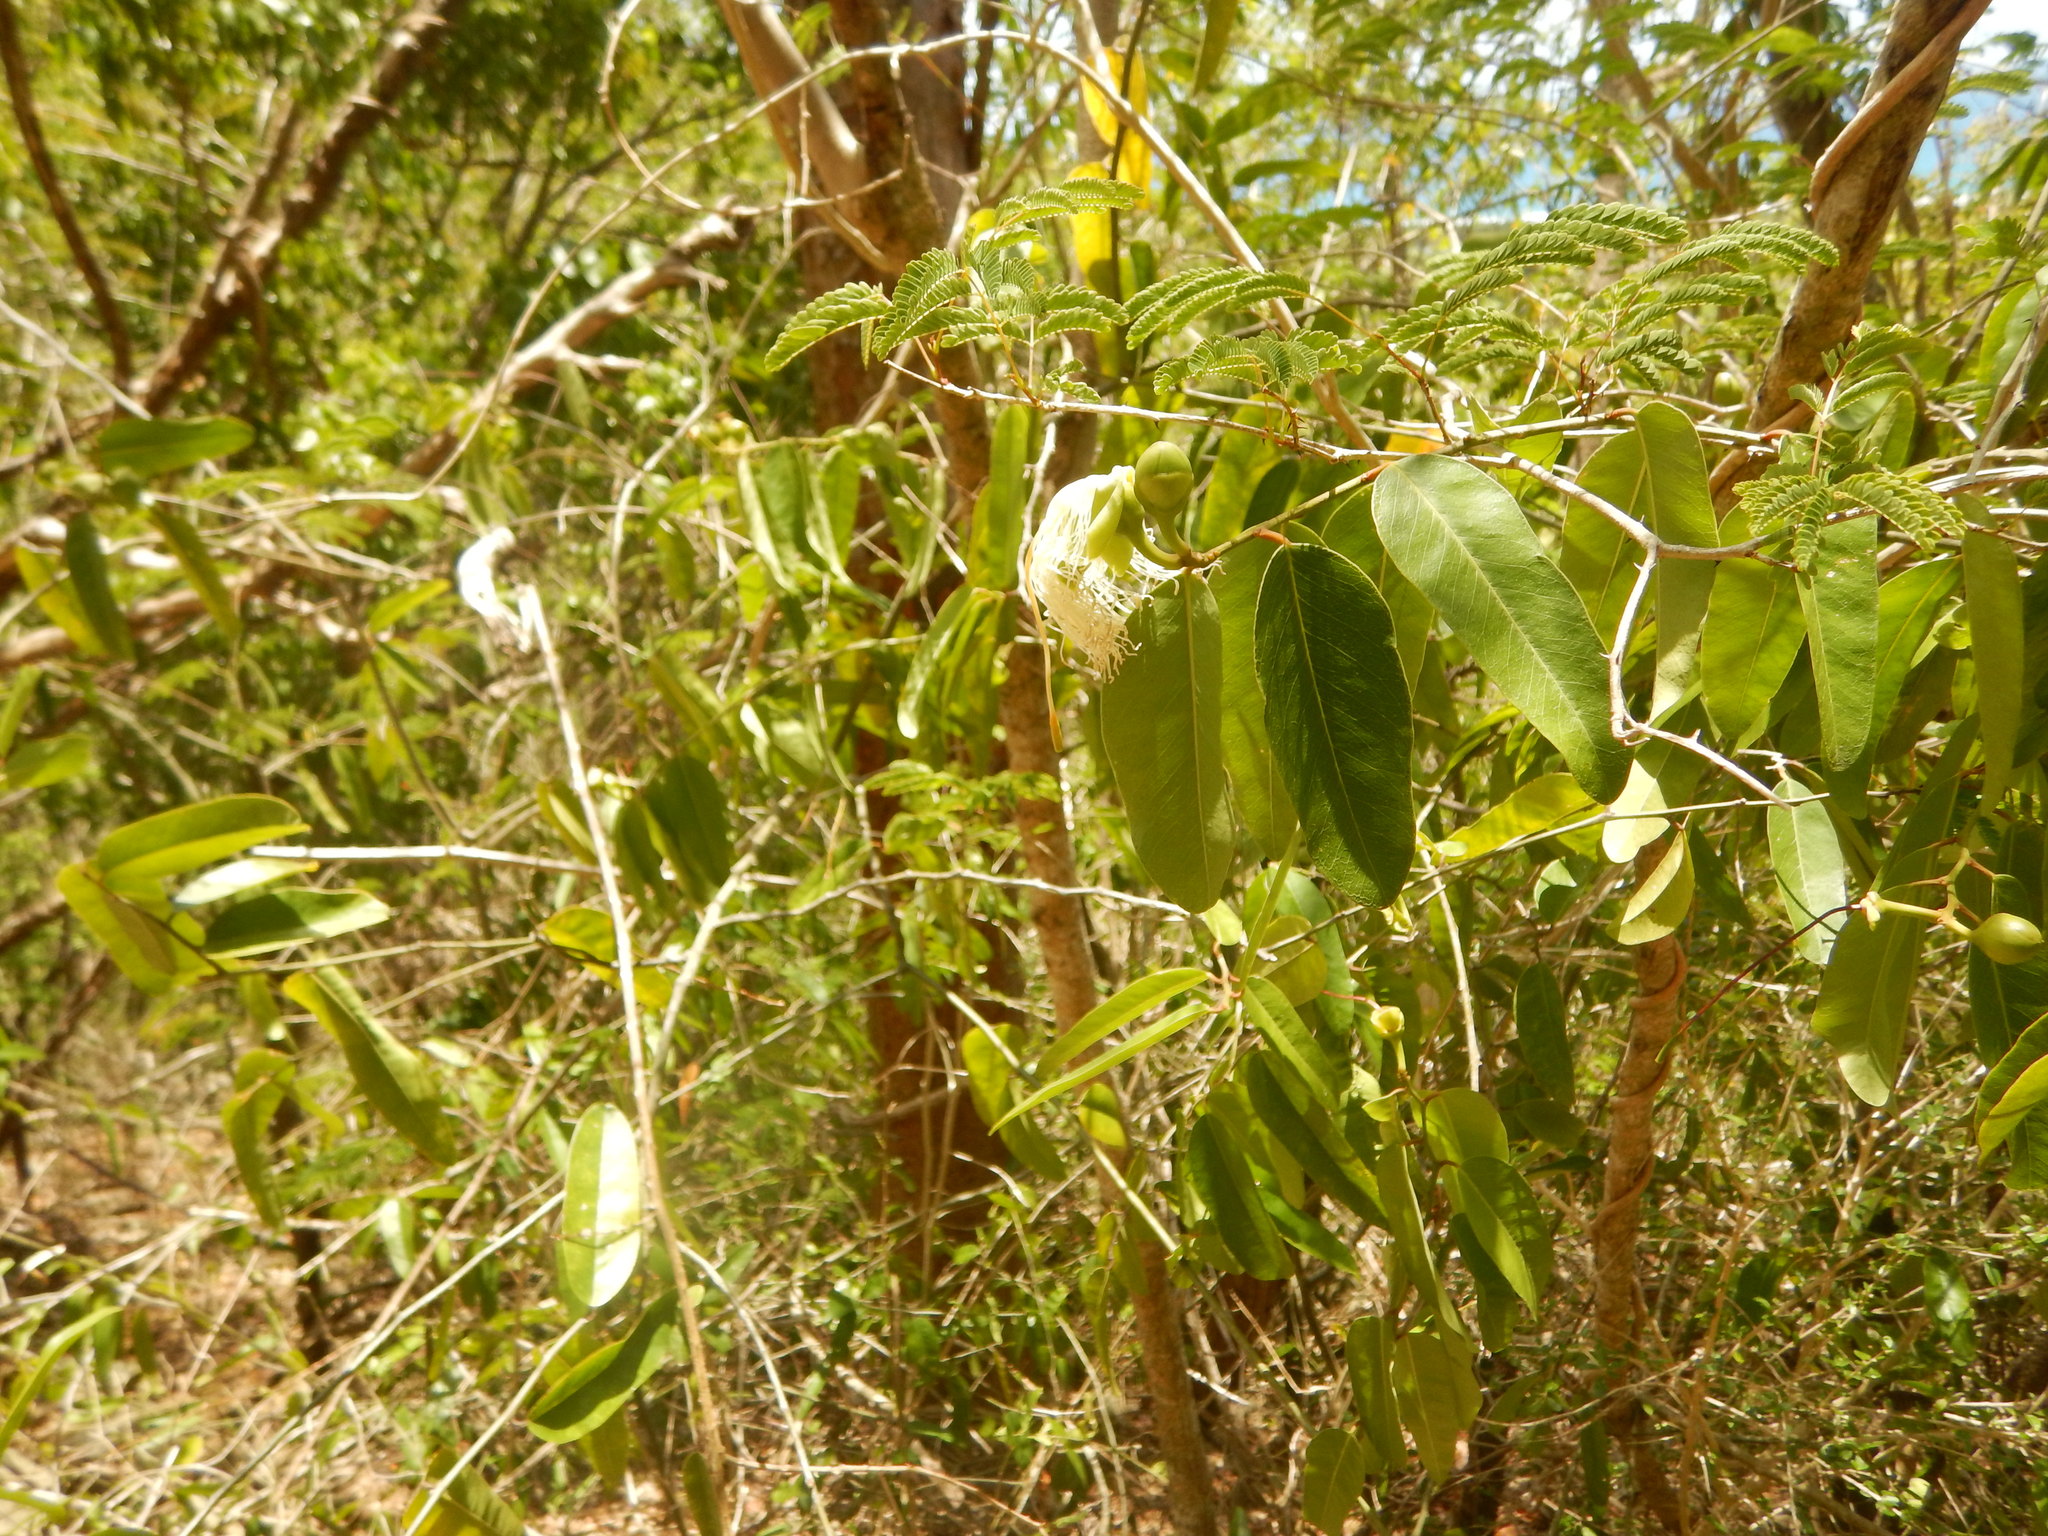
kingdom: Plantae
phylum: Tracheophyta
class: Magnoliopsida
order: Brassicales
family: Capparaceae
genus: Cynophalla
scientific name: Cynophalla flexuosa
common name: Capertree
